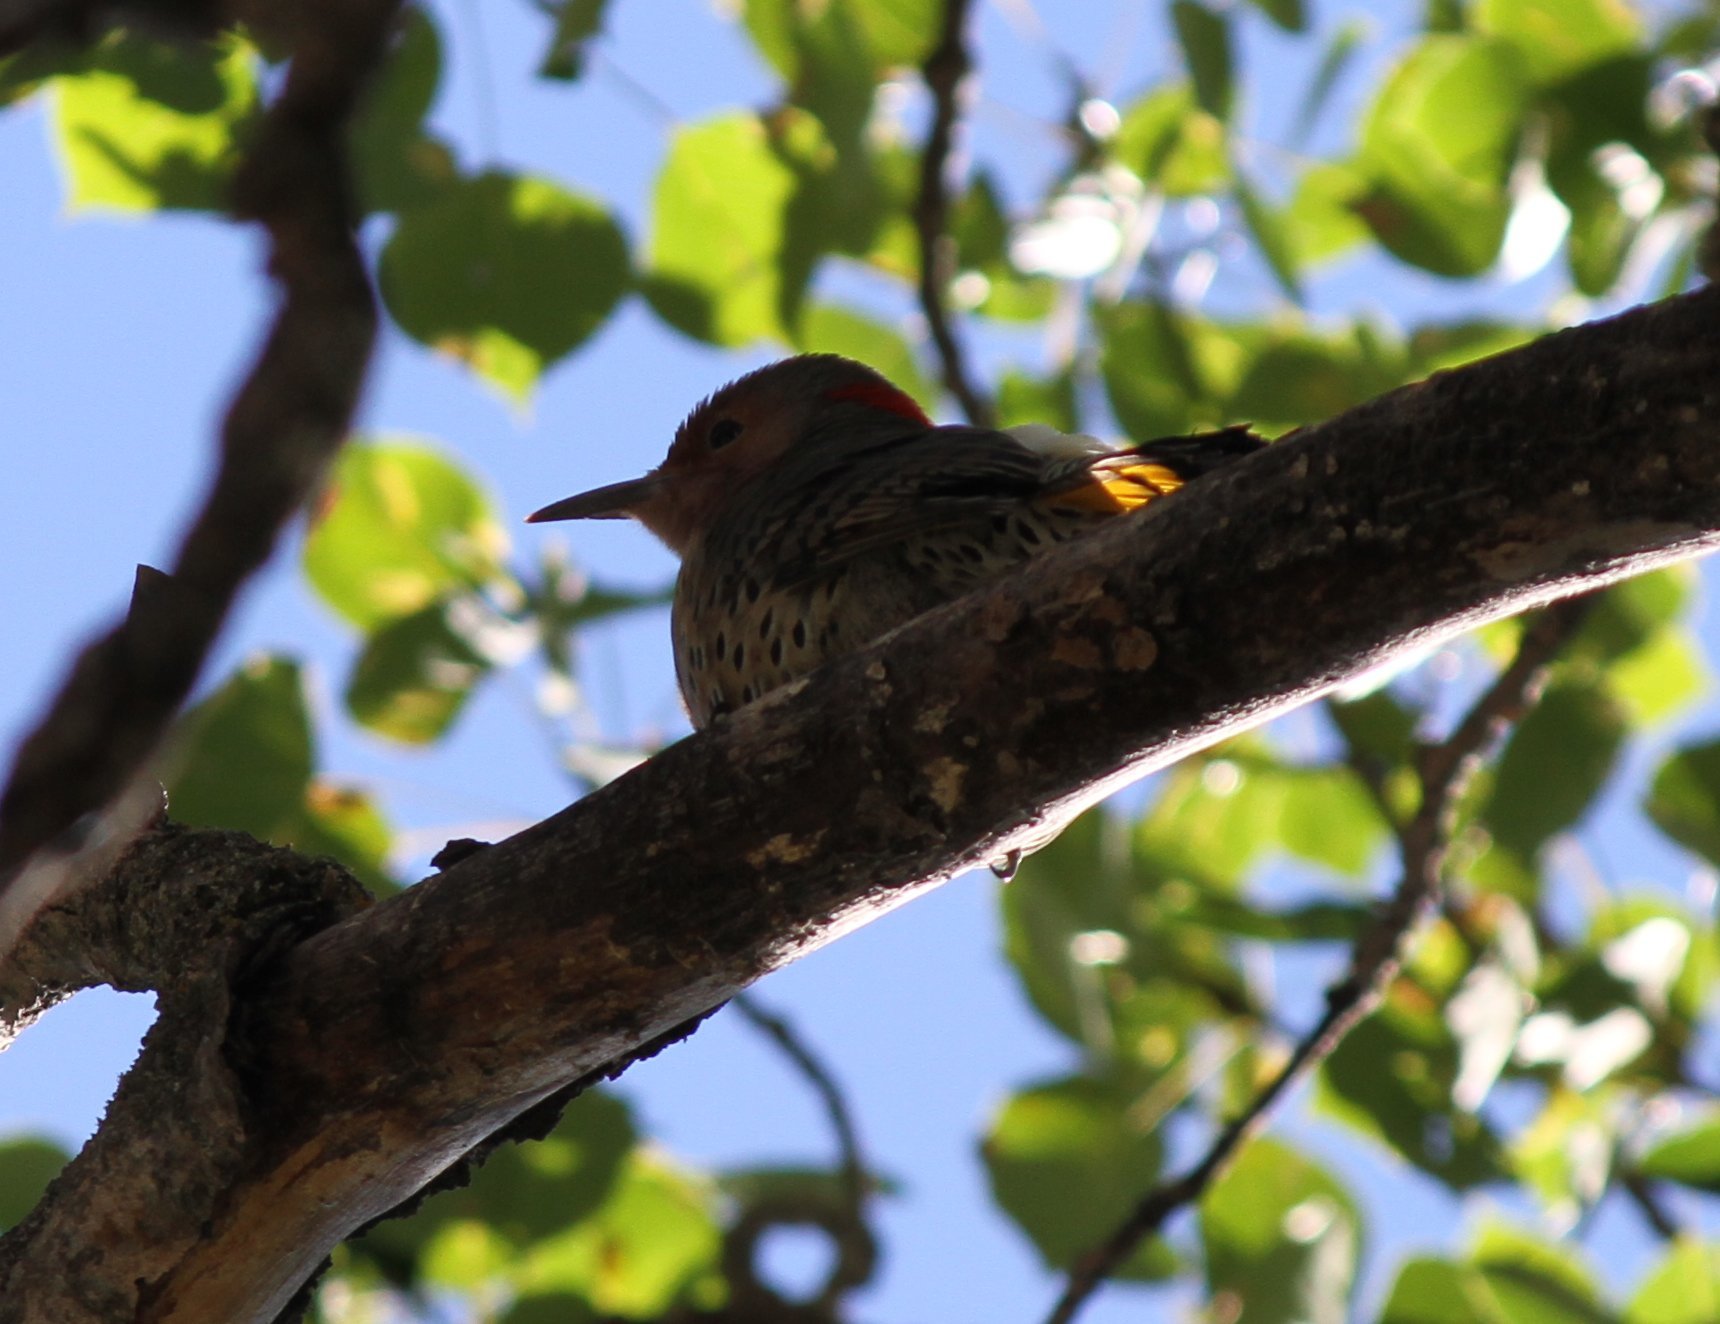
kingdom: Animalia
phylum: Chordata
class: Aves
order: Piciformes
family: Picidae
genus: Colaptes
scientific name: Colaptes auratus
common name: Northern flicker
